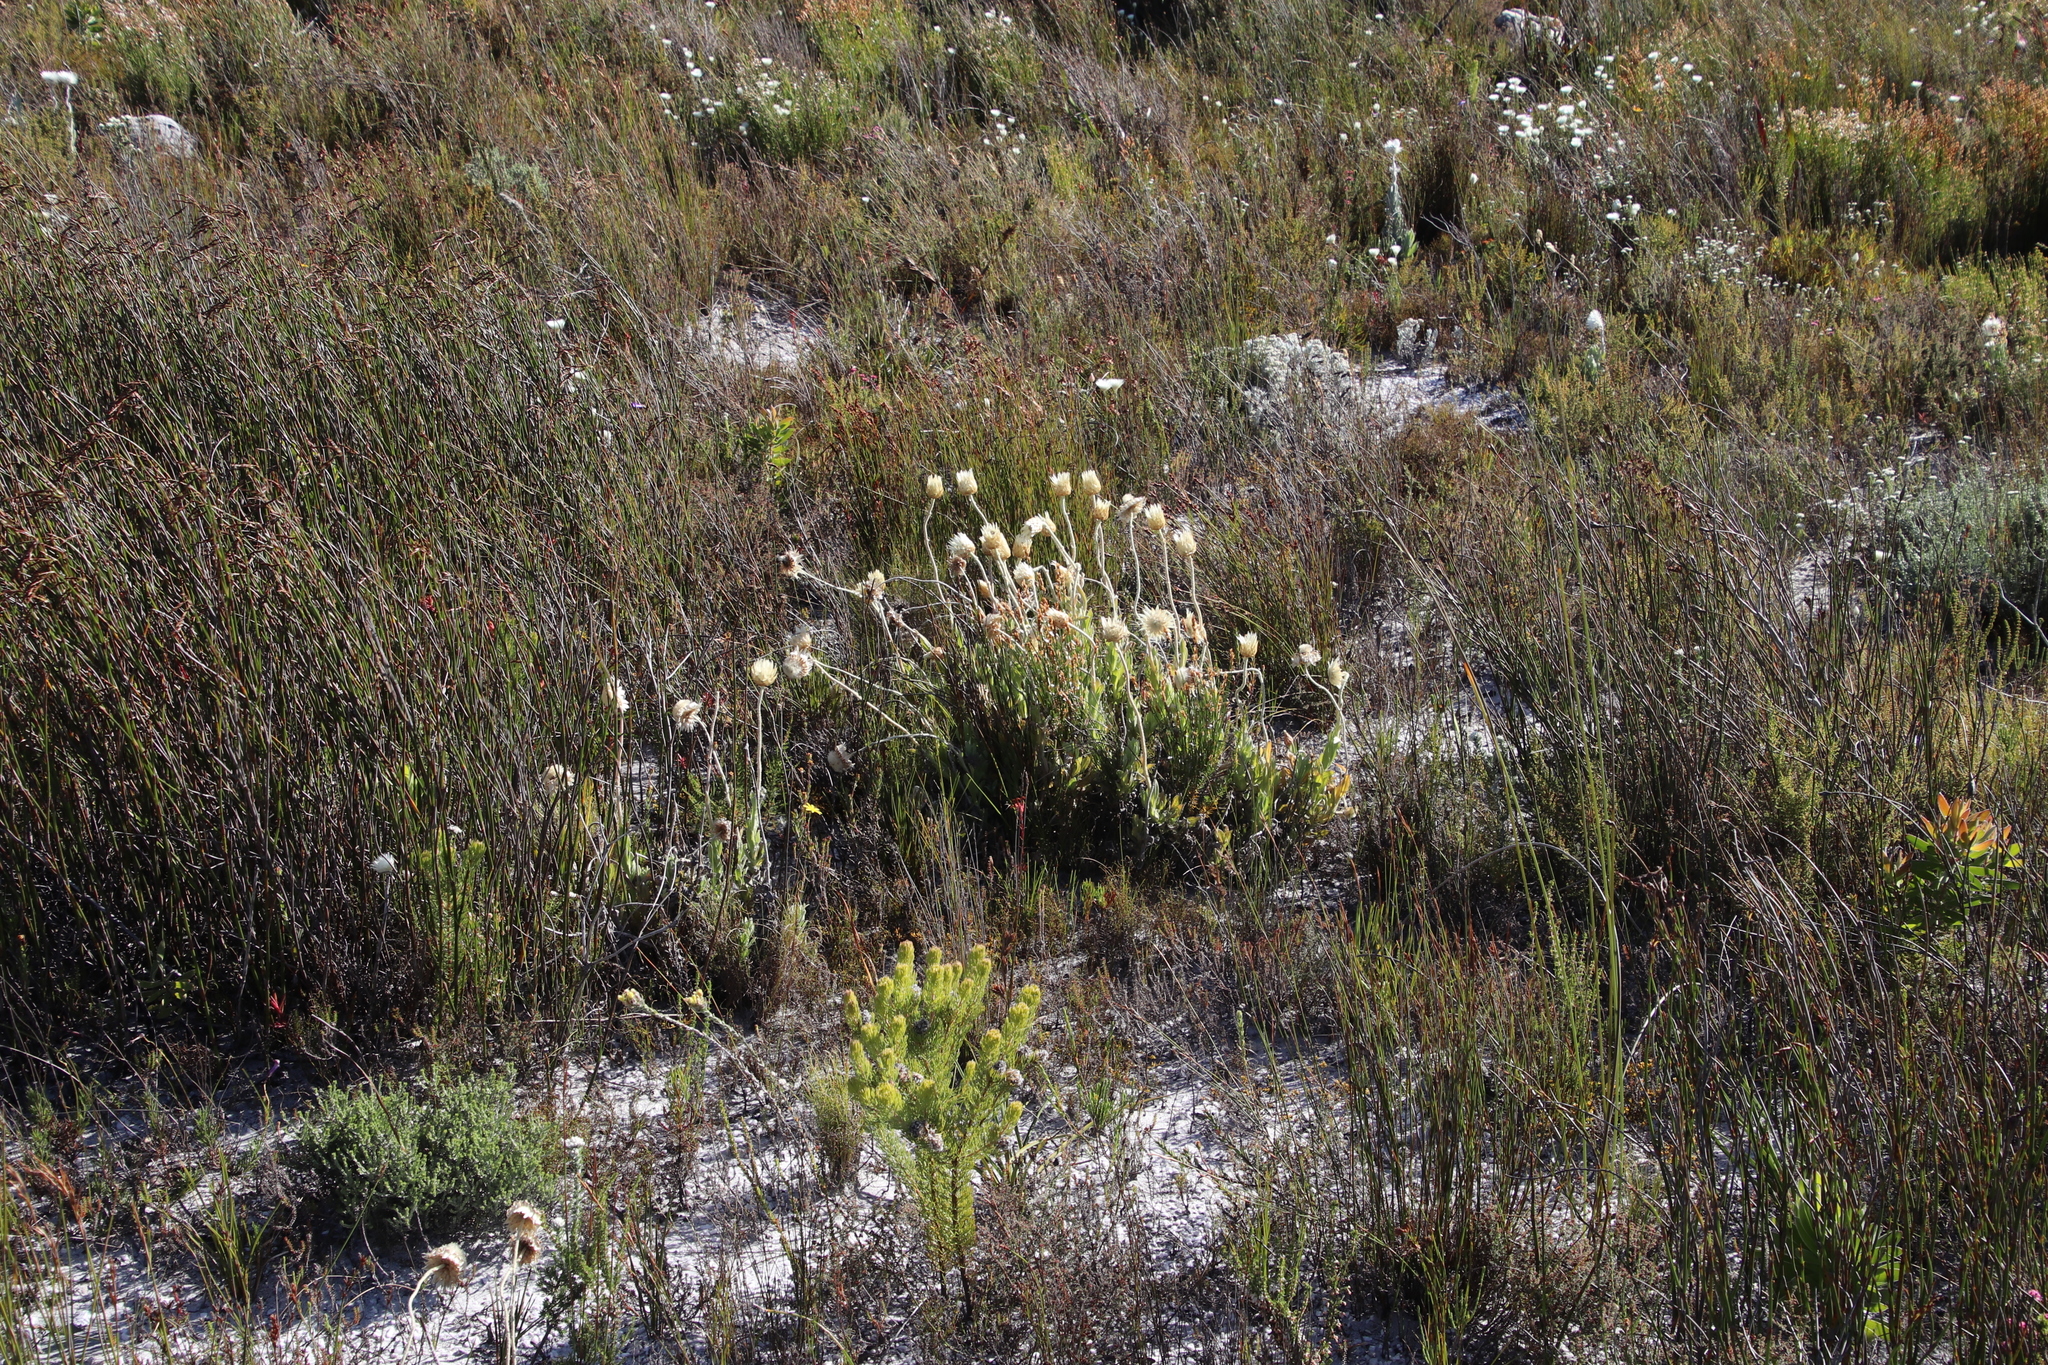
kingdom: Plantae
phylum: Tracheophyta
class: Magnoliopsida
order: Asterales
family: Asteraceae
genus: Syncarpha
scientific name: Syncarpha speciosissima
